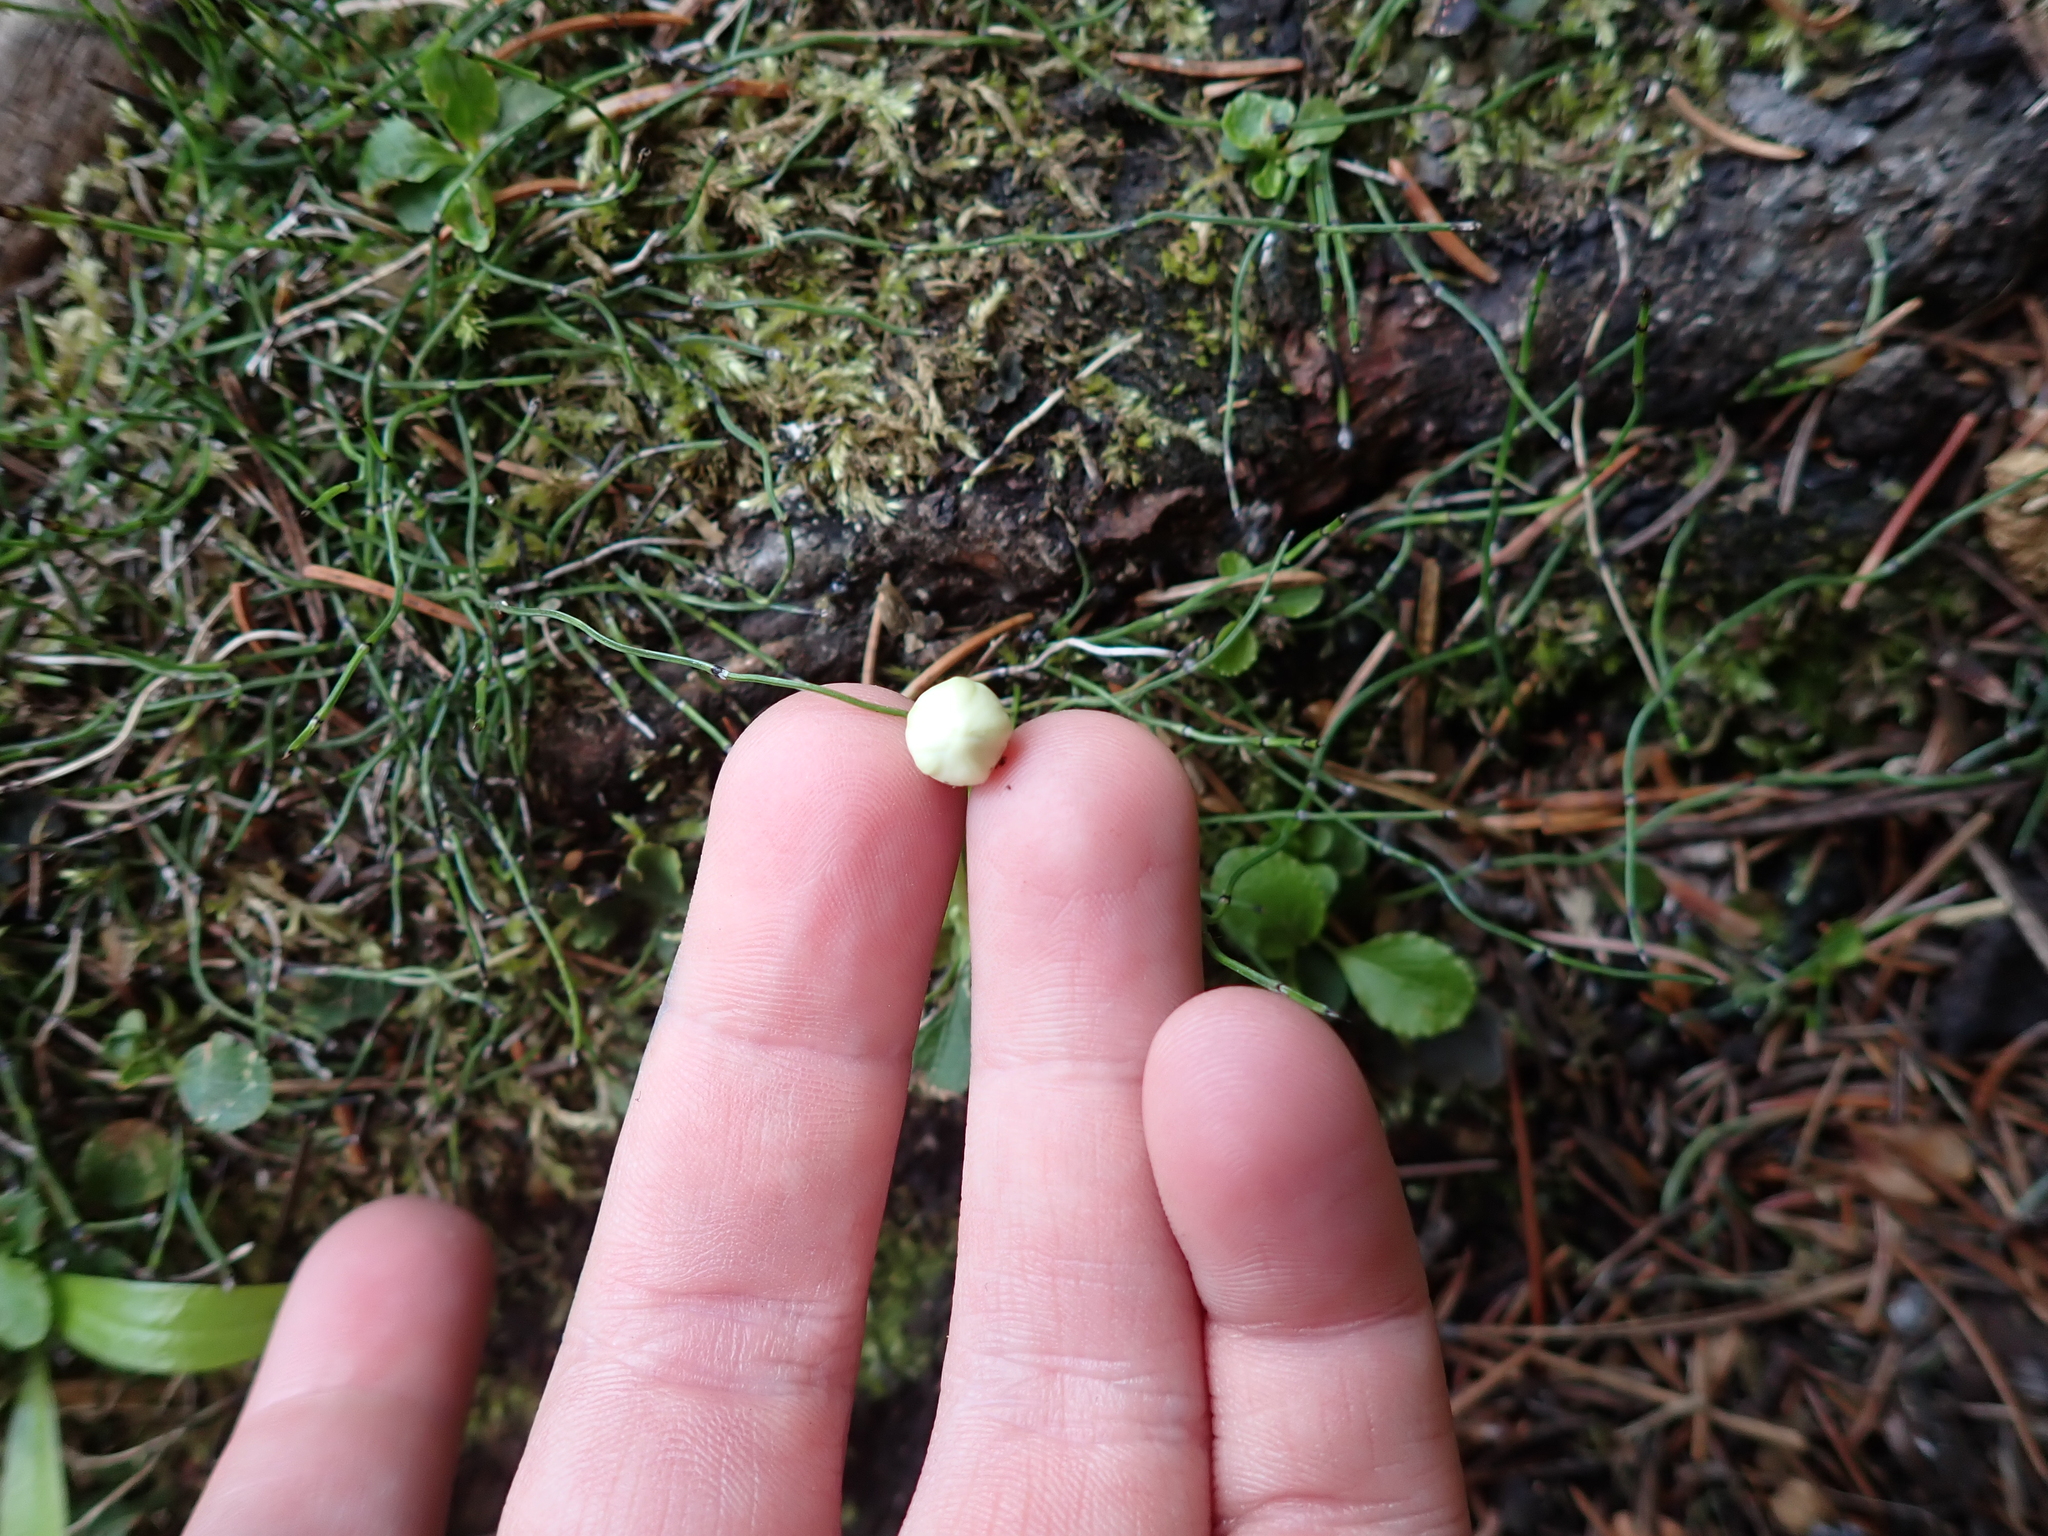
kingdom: Plantae
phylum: Tracheophyta
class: Magnoliopsida
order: Ericales
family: Ericaceae
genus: Moneses
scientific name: Moneses uniflora
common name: One-flowered wintergreen
